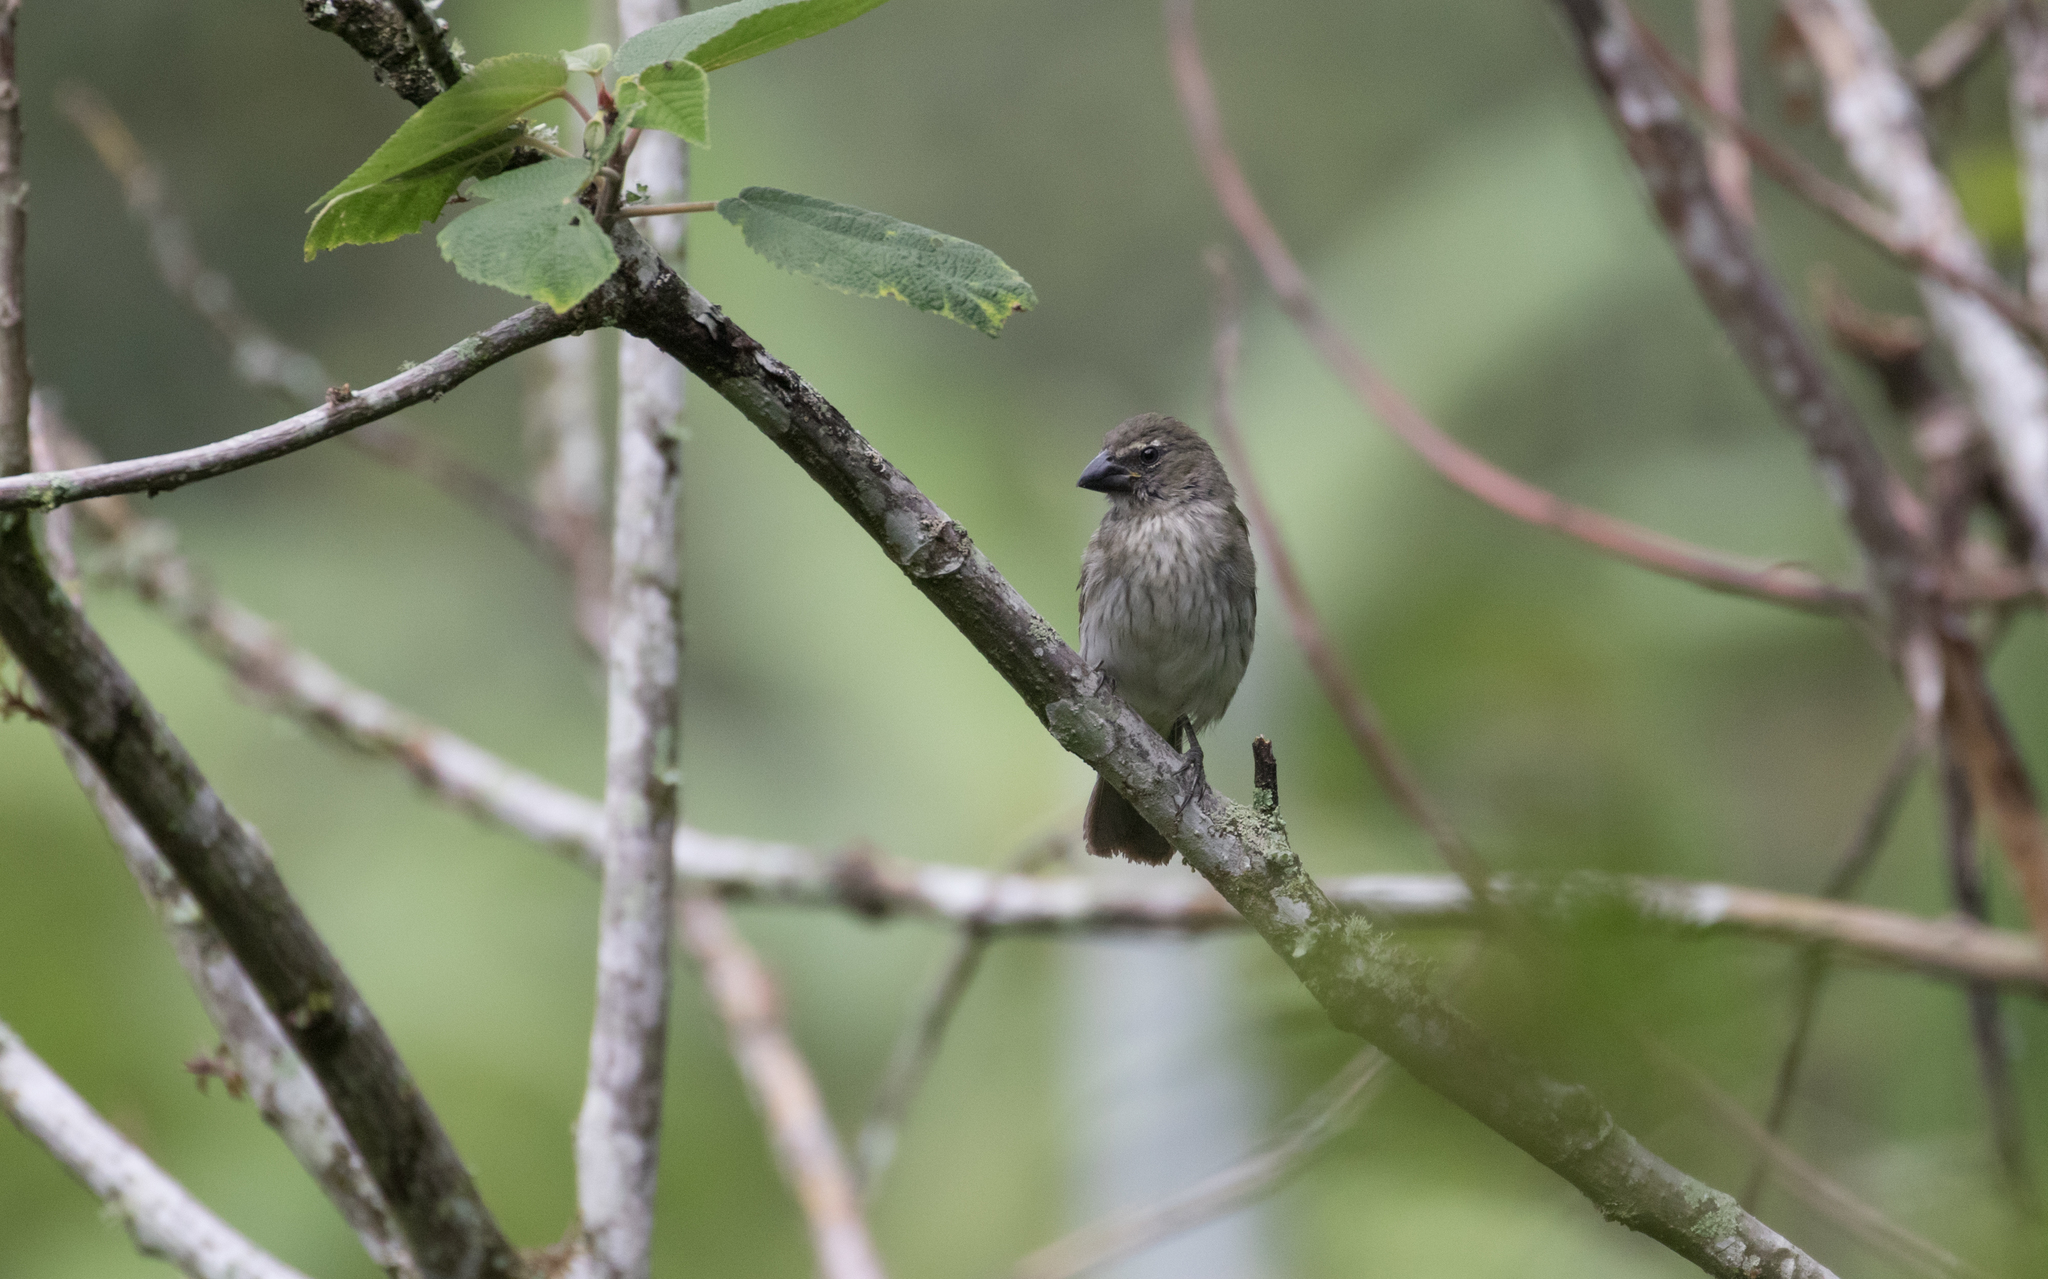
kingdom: Animalia
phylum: Chordata
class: Aves
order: Passeriformes
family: Thraupidae
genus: Saltator
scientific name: Saltator striatipectus
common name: Streaked saltator
